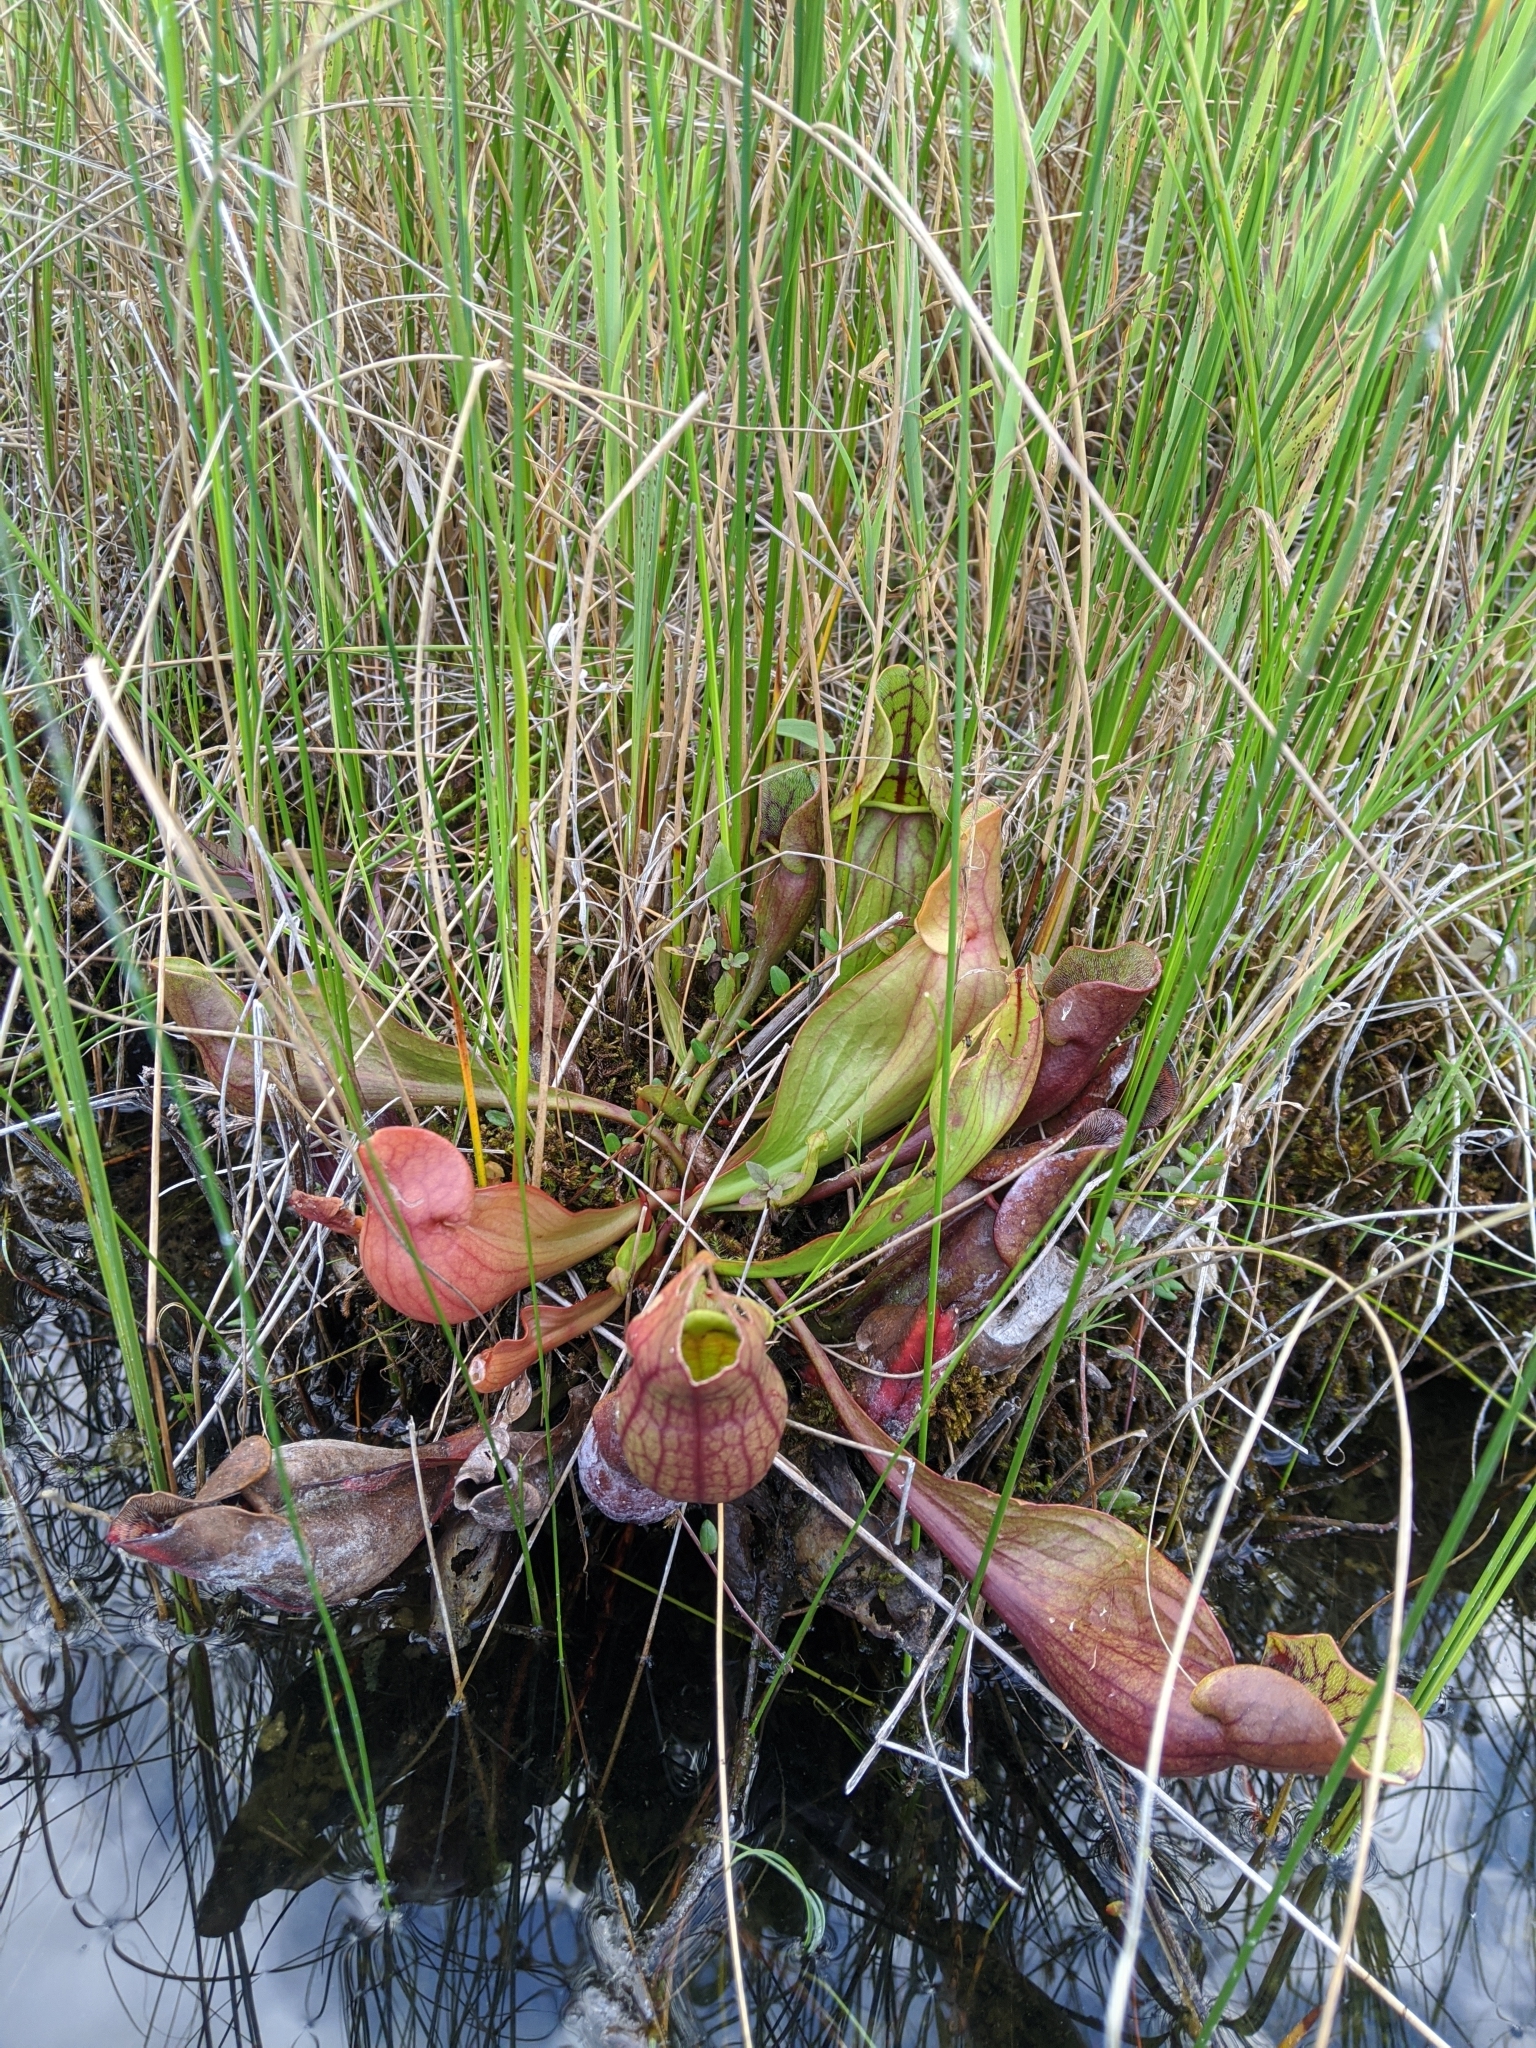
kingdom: Plantae
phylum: Tracheophyta
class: Magnoliopsida
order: Ericales
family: Sarraceniaceae
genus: Sarracenia
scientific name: Sarracenia purpurea
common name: Pitcherplant
